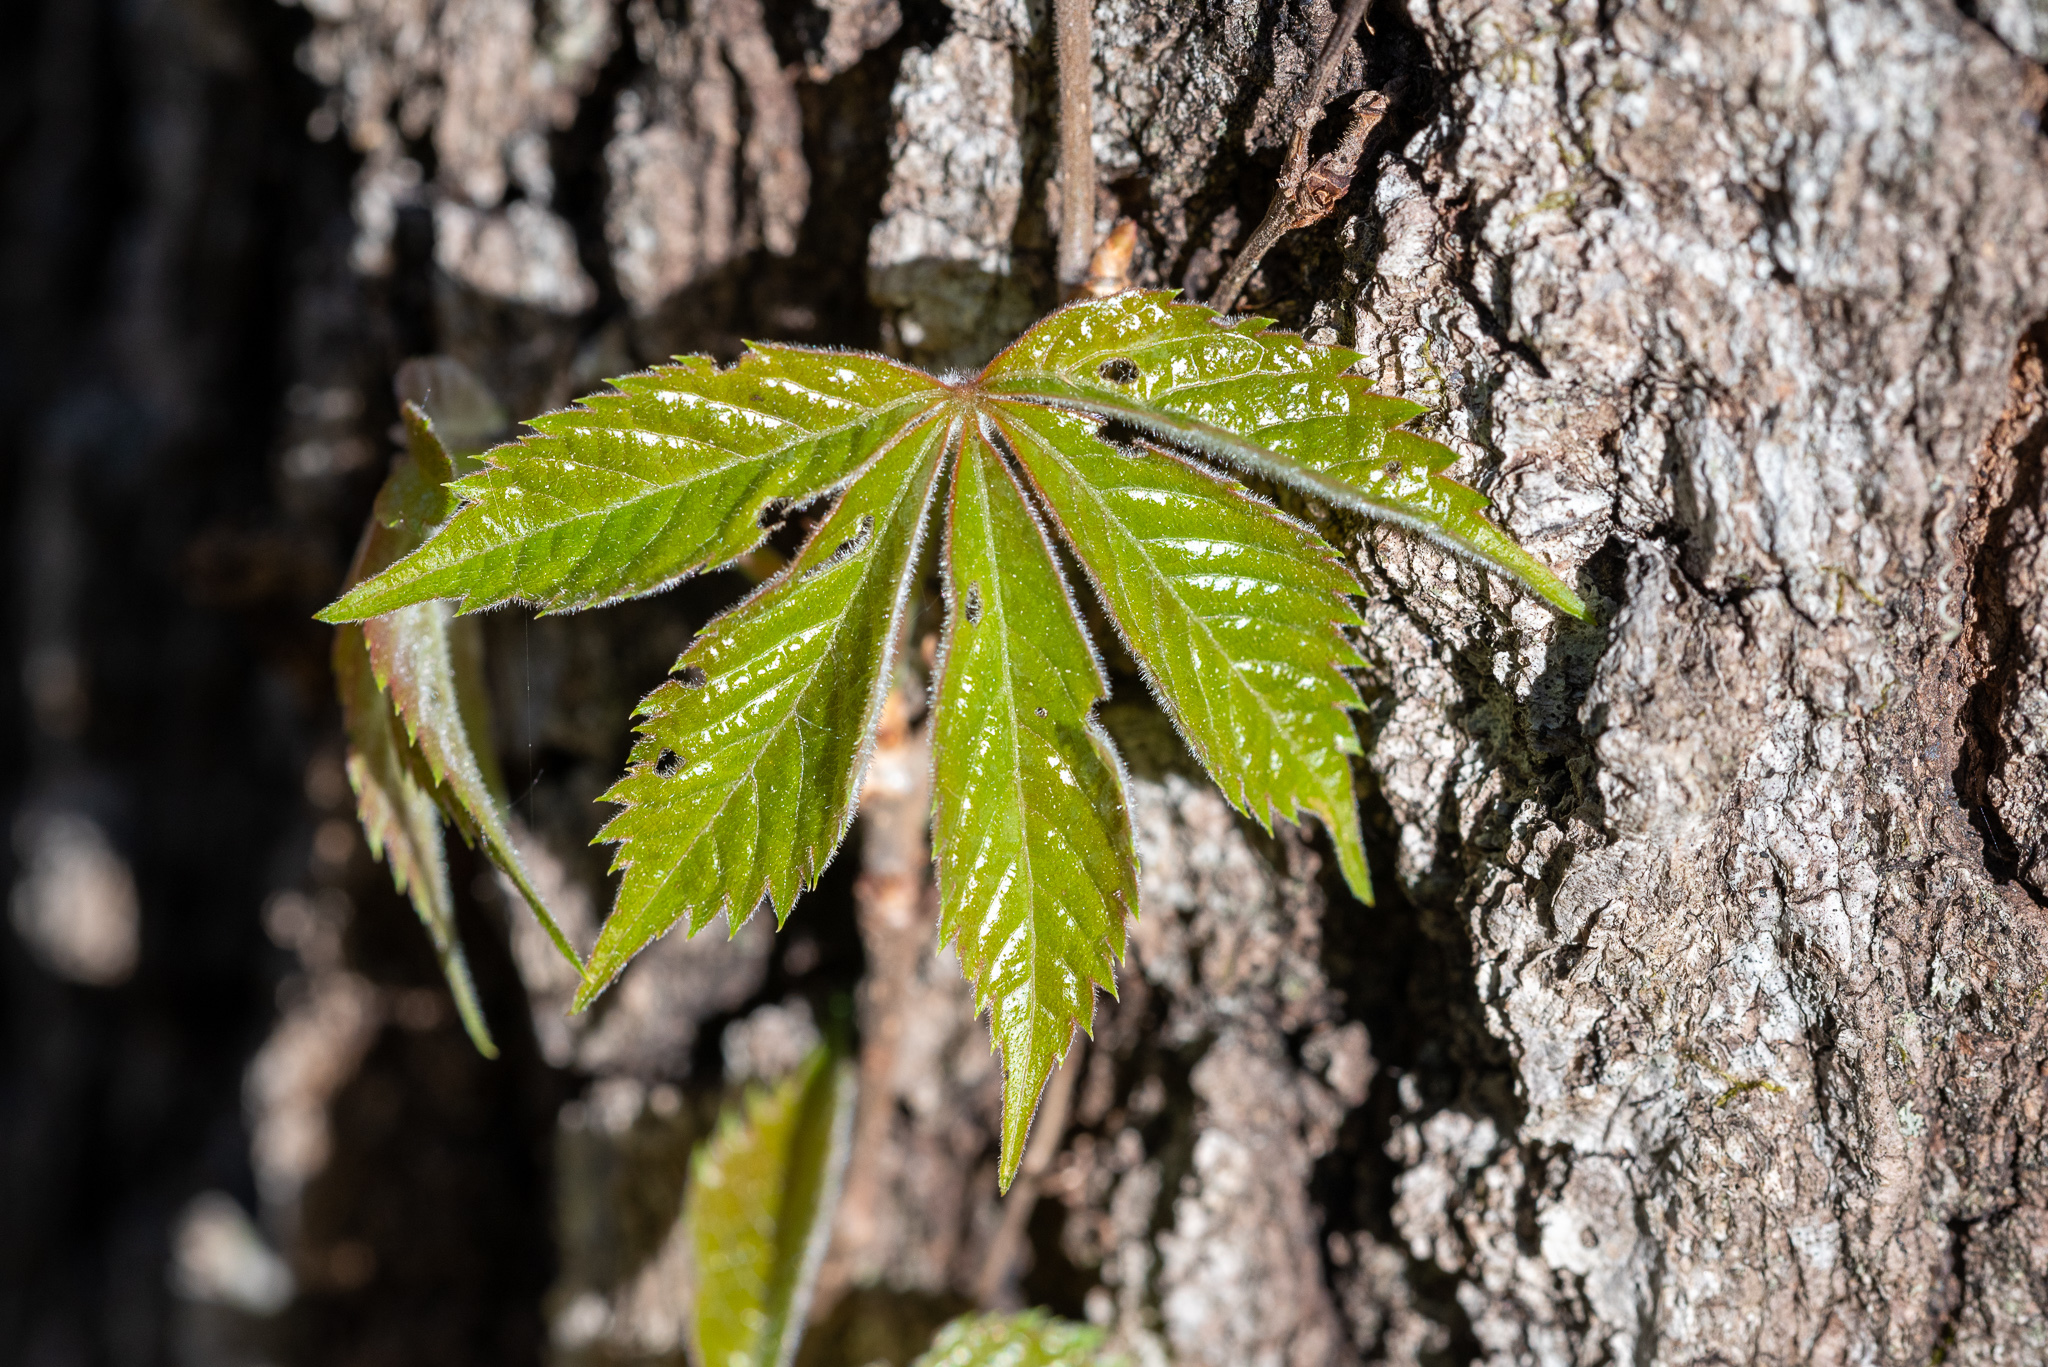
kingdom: Plantae
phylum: Tracheophyta
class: Magnoliopsida
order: Vitales
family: Vitaceae
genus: Parthenocissus
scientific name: Parthenocissus quinquefolia
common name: Virginia-creeper
